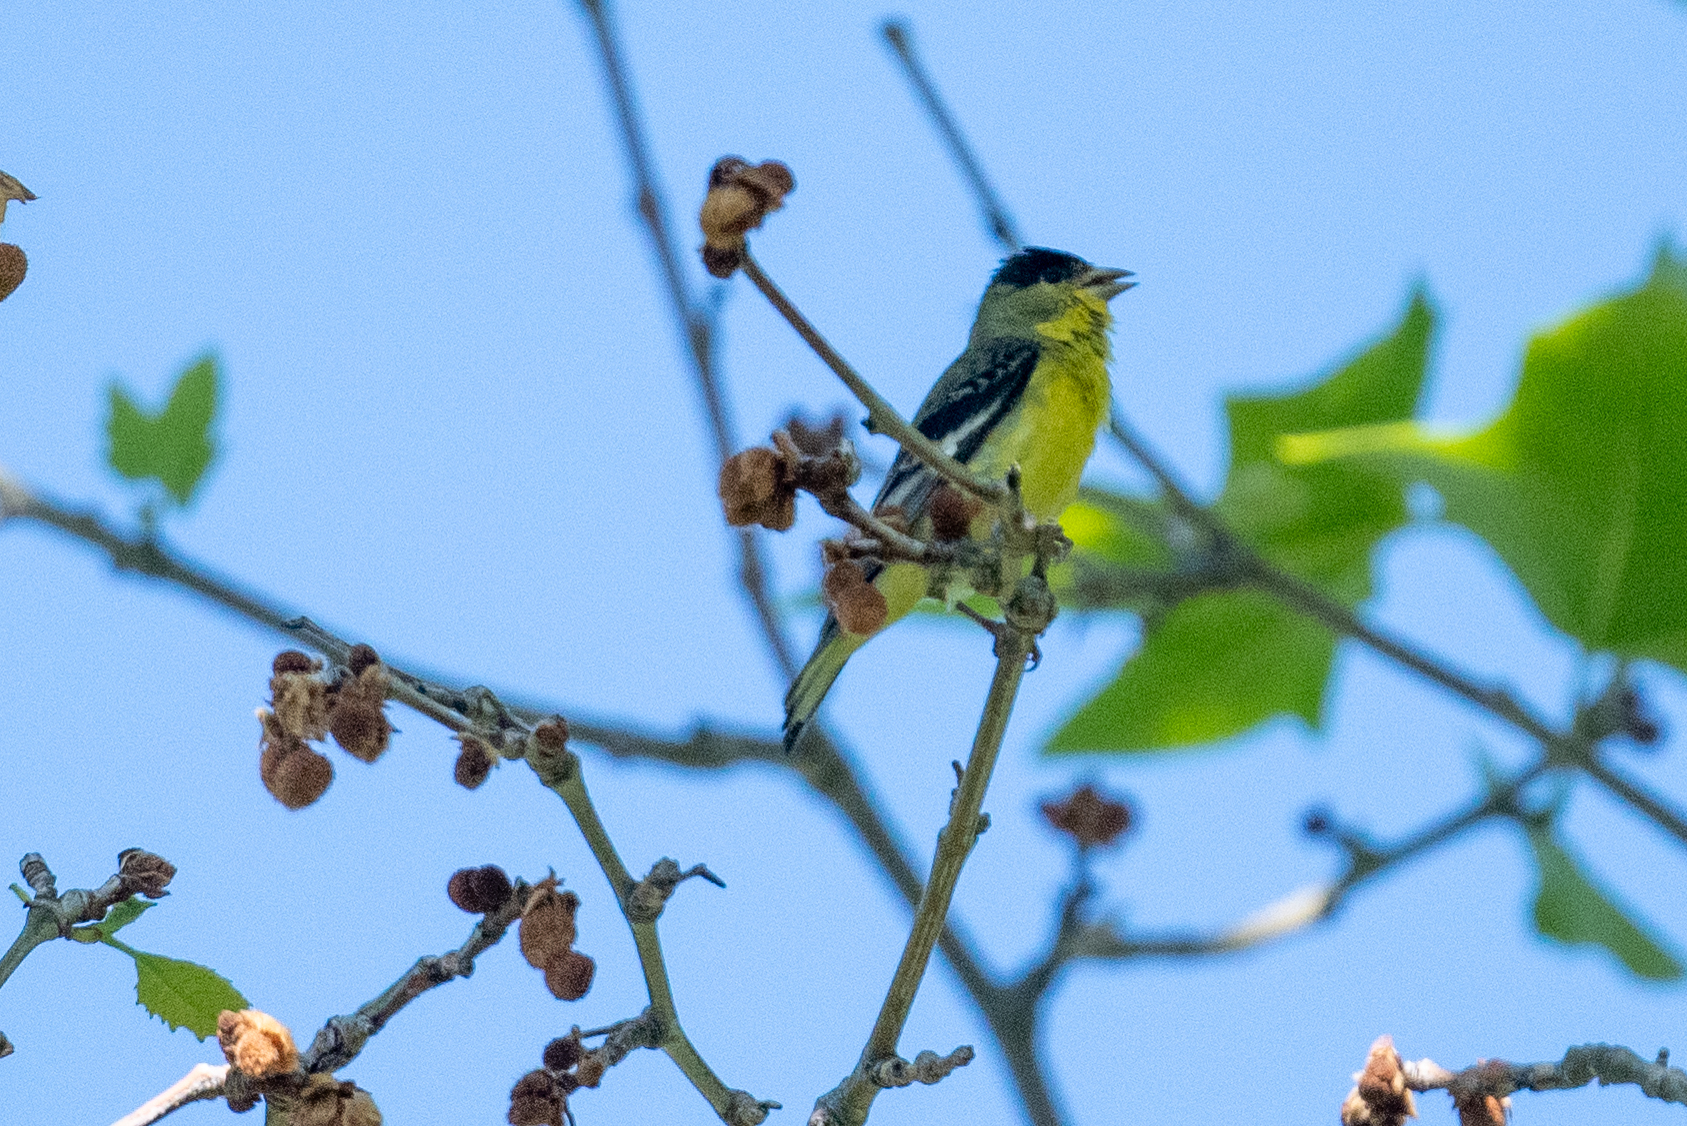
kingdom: Animalia
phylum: Chordata
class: Aves
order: Passeriformes
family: Fringillidae
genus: Spinus
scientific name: Spinus psaltria
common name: Lesser goldfinch
